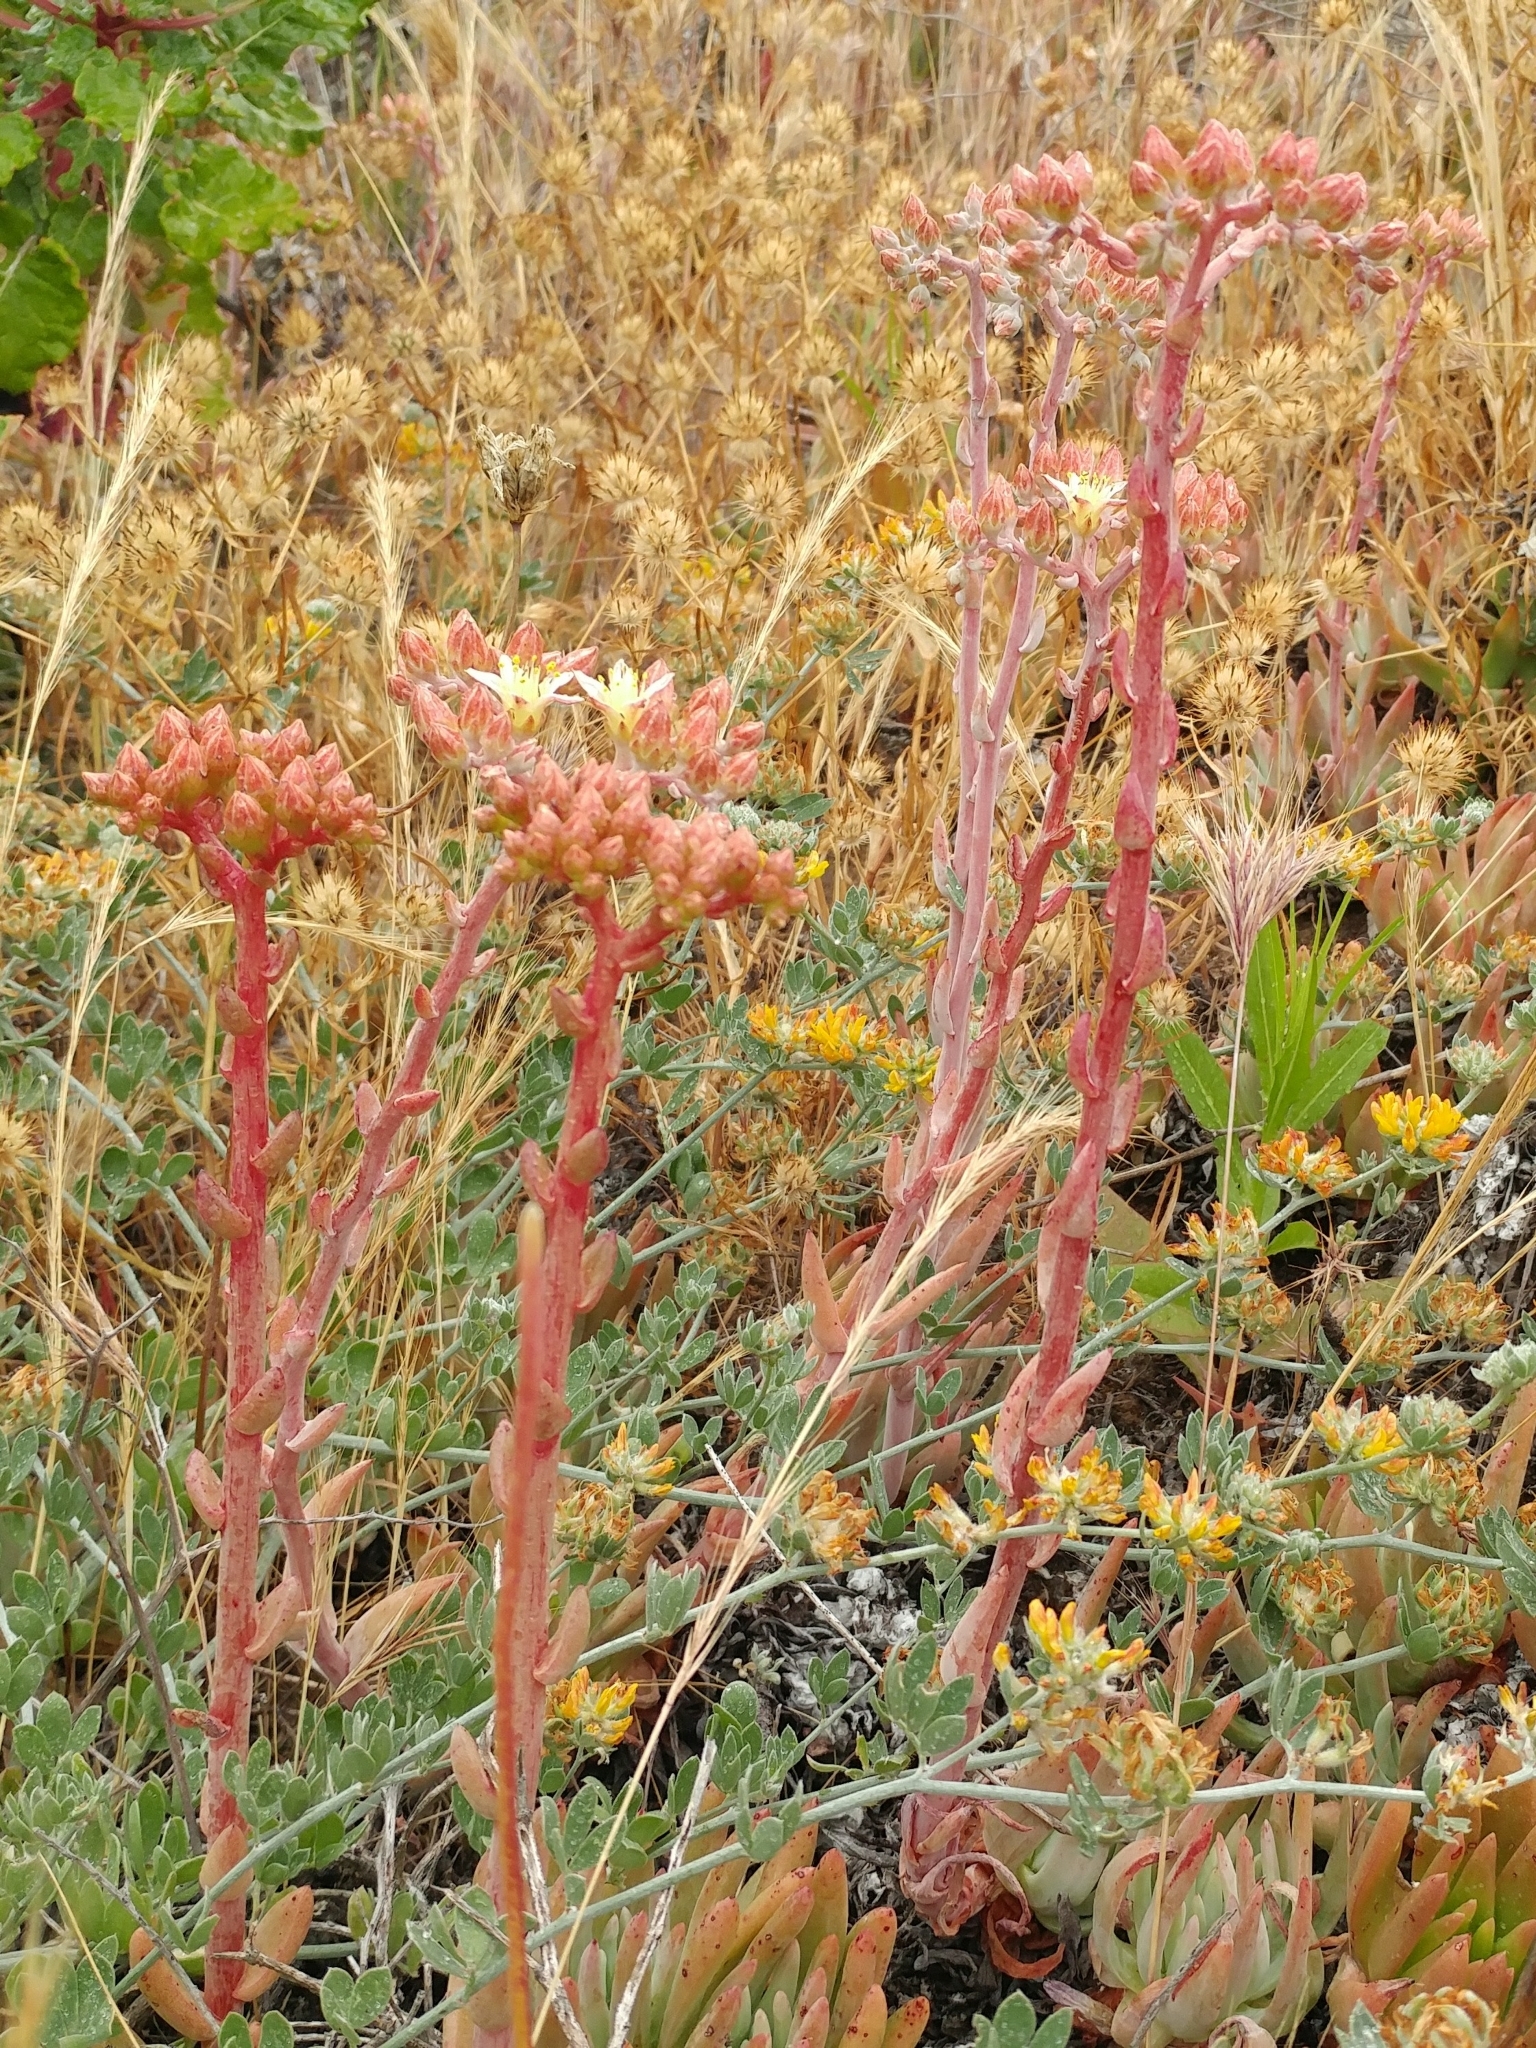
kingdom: Plantae
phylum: Tracheophyta
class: Magnoliopsida
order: Saxifragales
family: Crassulaceae
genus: Dudleya
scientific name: Dudleya virens
